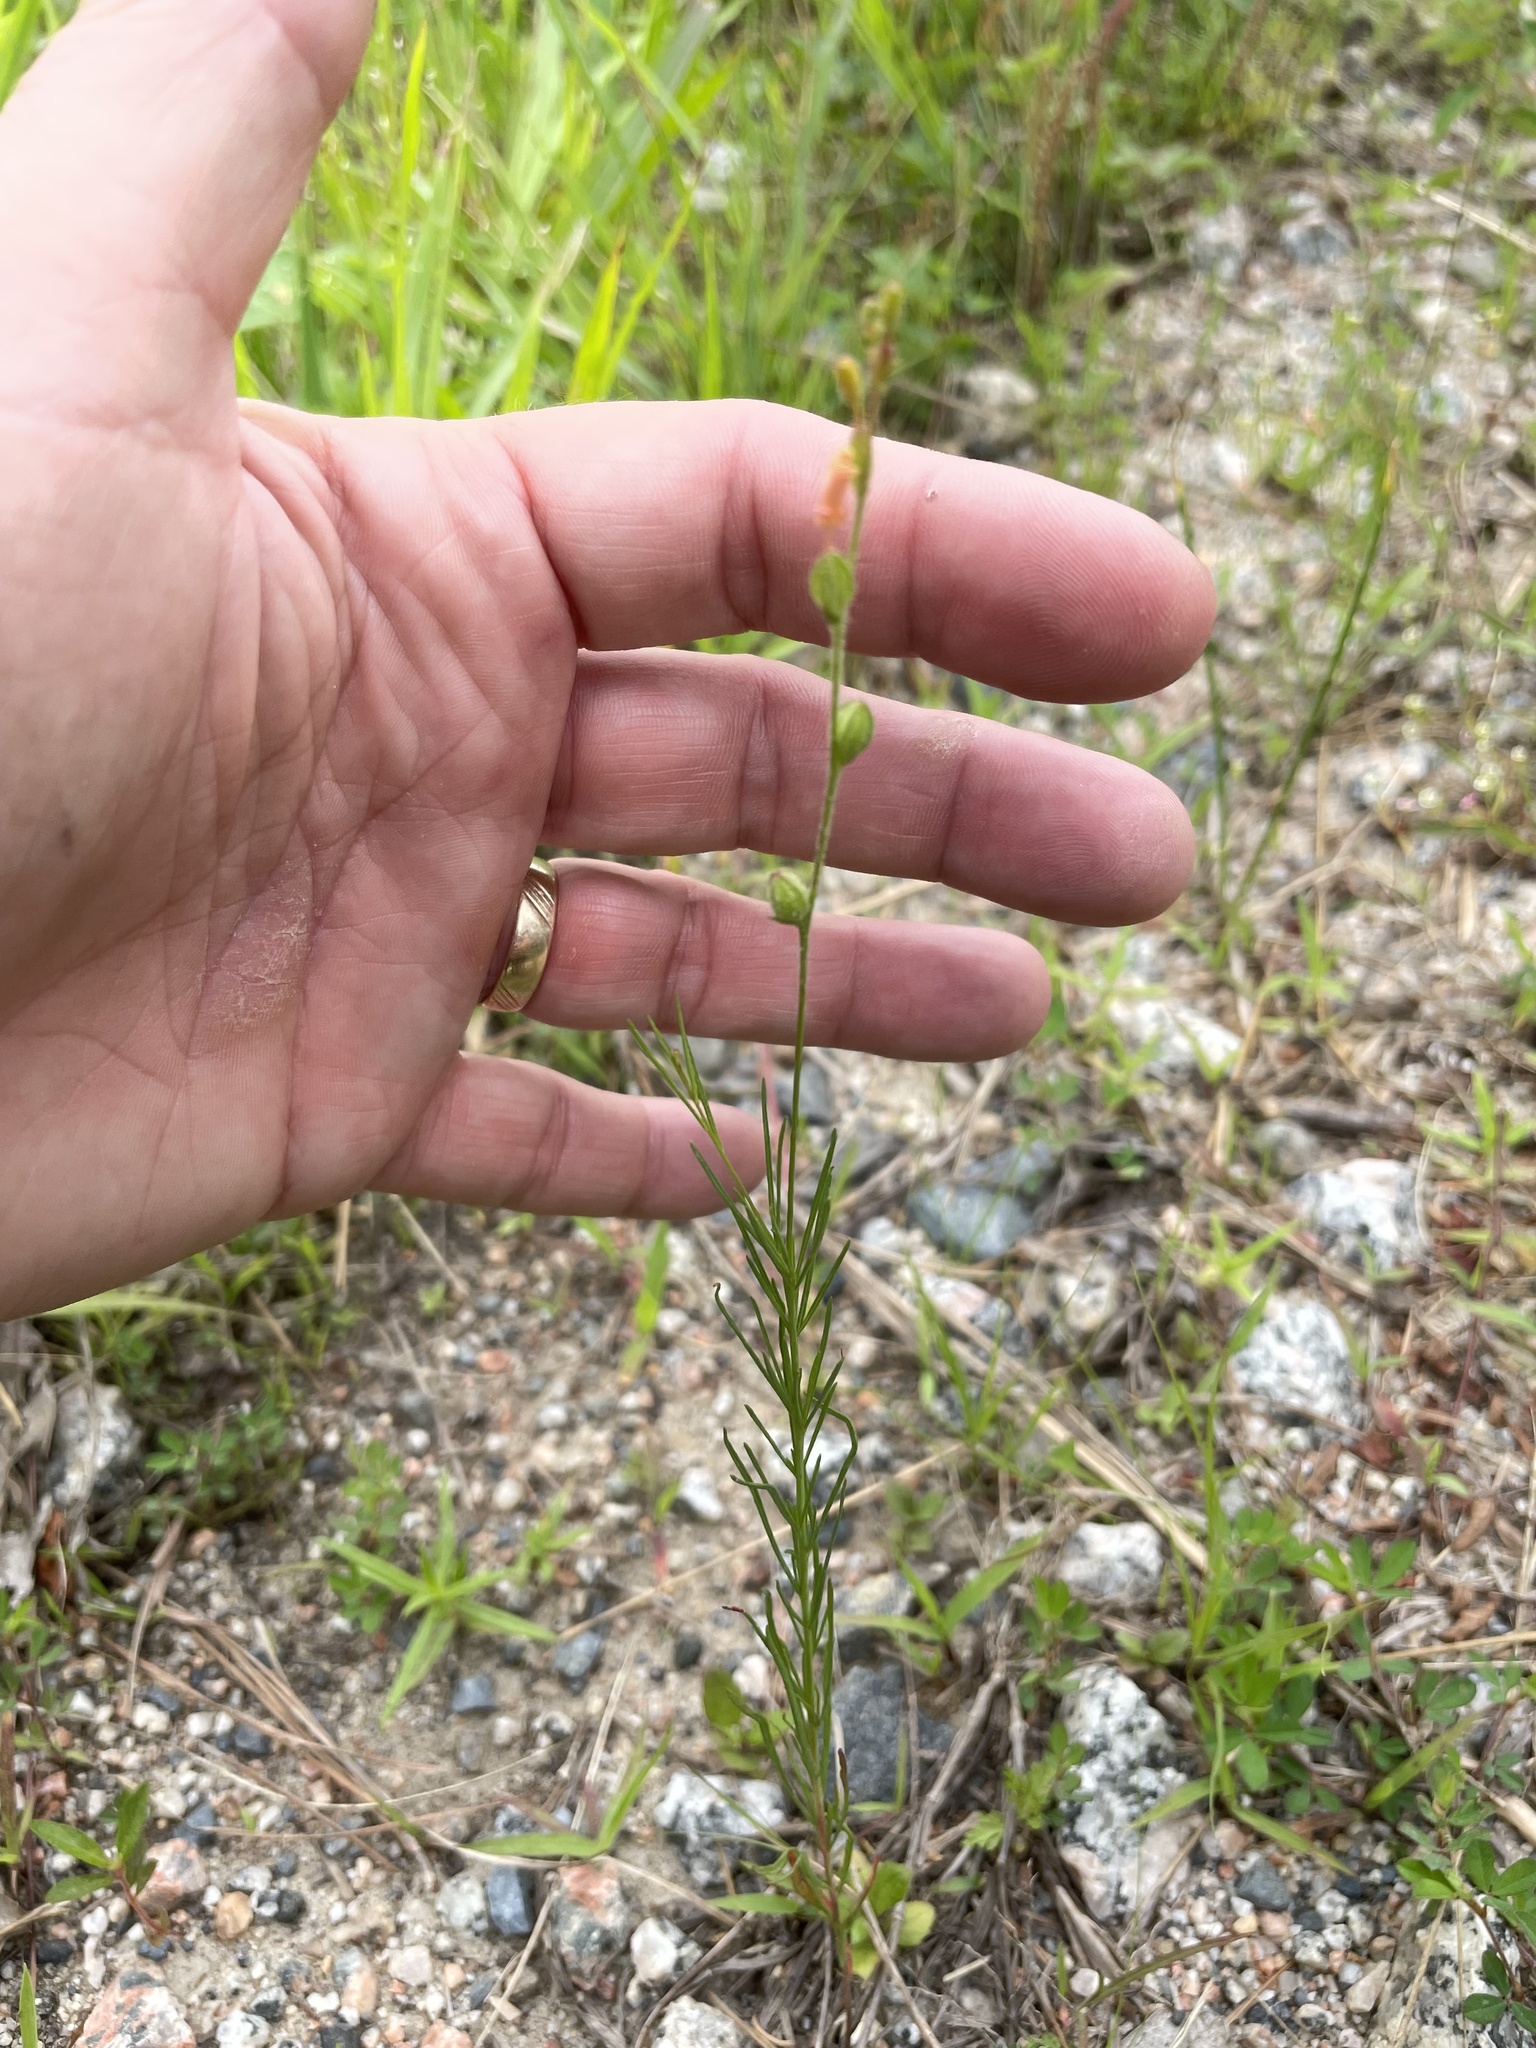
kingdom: Plantae
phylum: Tracheophyta
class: Magnoliopsida
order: Myrtales
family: Onagraceae
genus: Oenothera
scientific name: Oenothera linifolia
